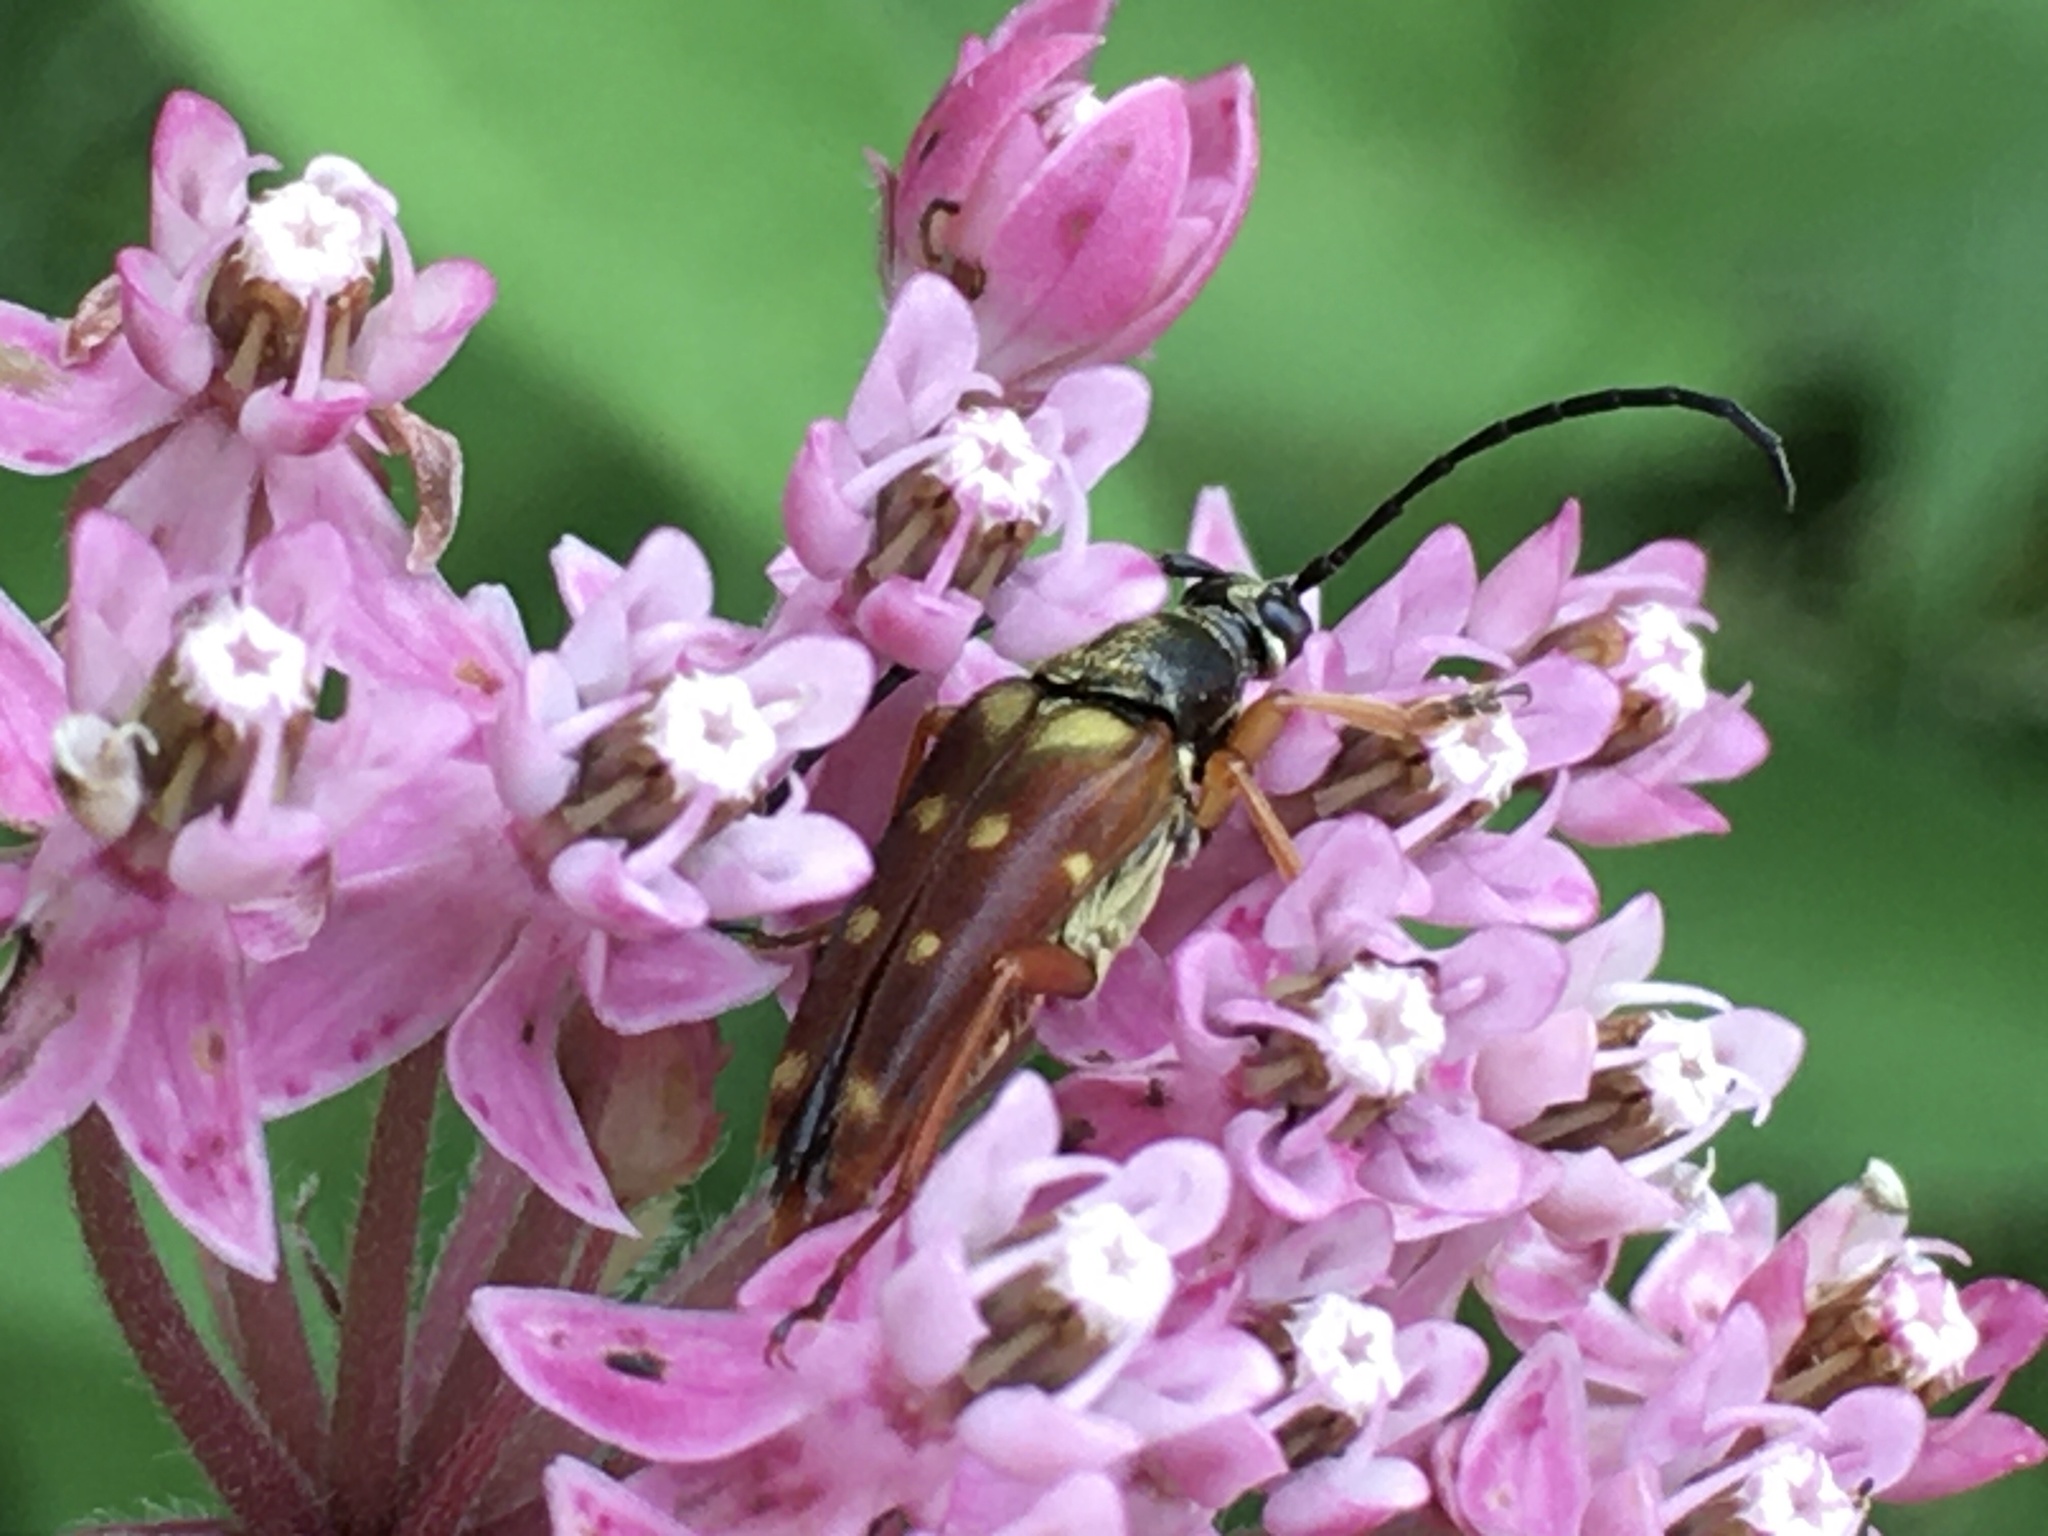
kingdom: Animalia
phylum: Arthropoda
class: Insecta
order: Coleoptera
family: Cerambycidae
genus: Typocerus
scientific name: Typocerus velutinus
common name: Banded longhorn beetle
